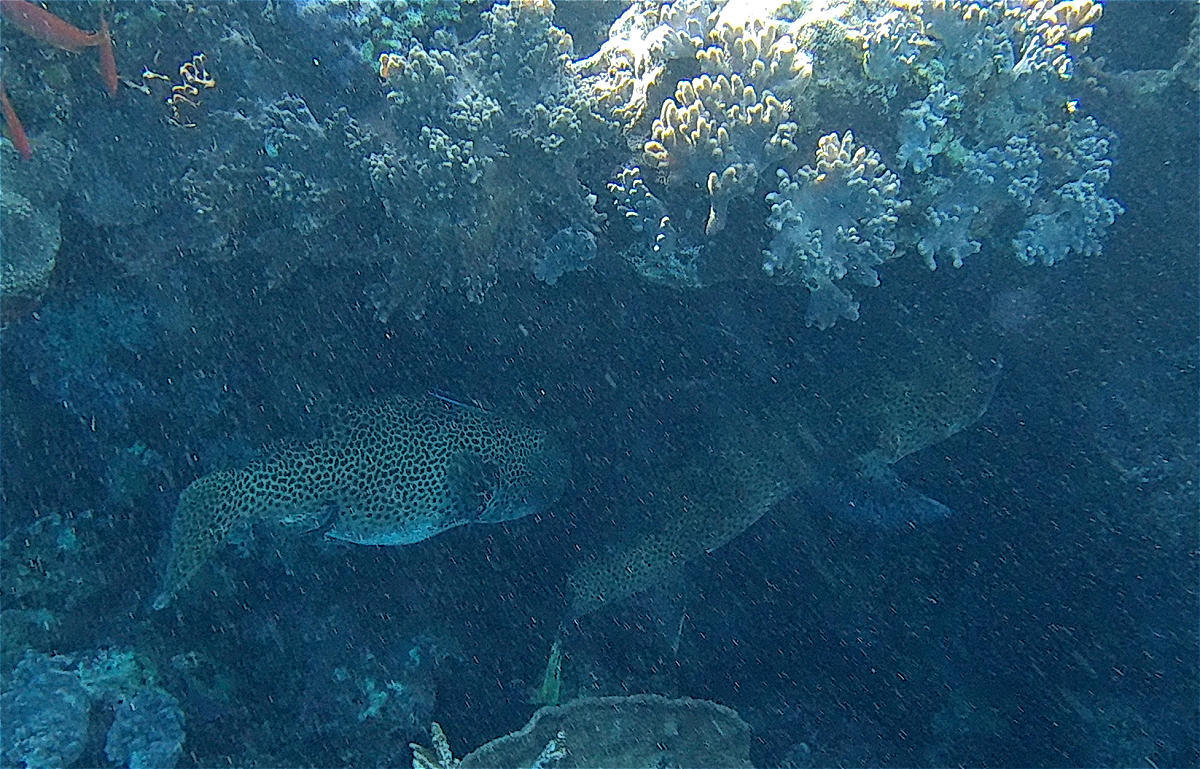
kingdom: Animalia
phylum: Chordata
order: Tetraodontiformes
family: Tetraodontidae
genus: Arothron
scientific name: Arothron stellatus
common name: Star blaasop
